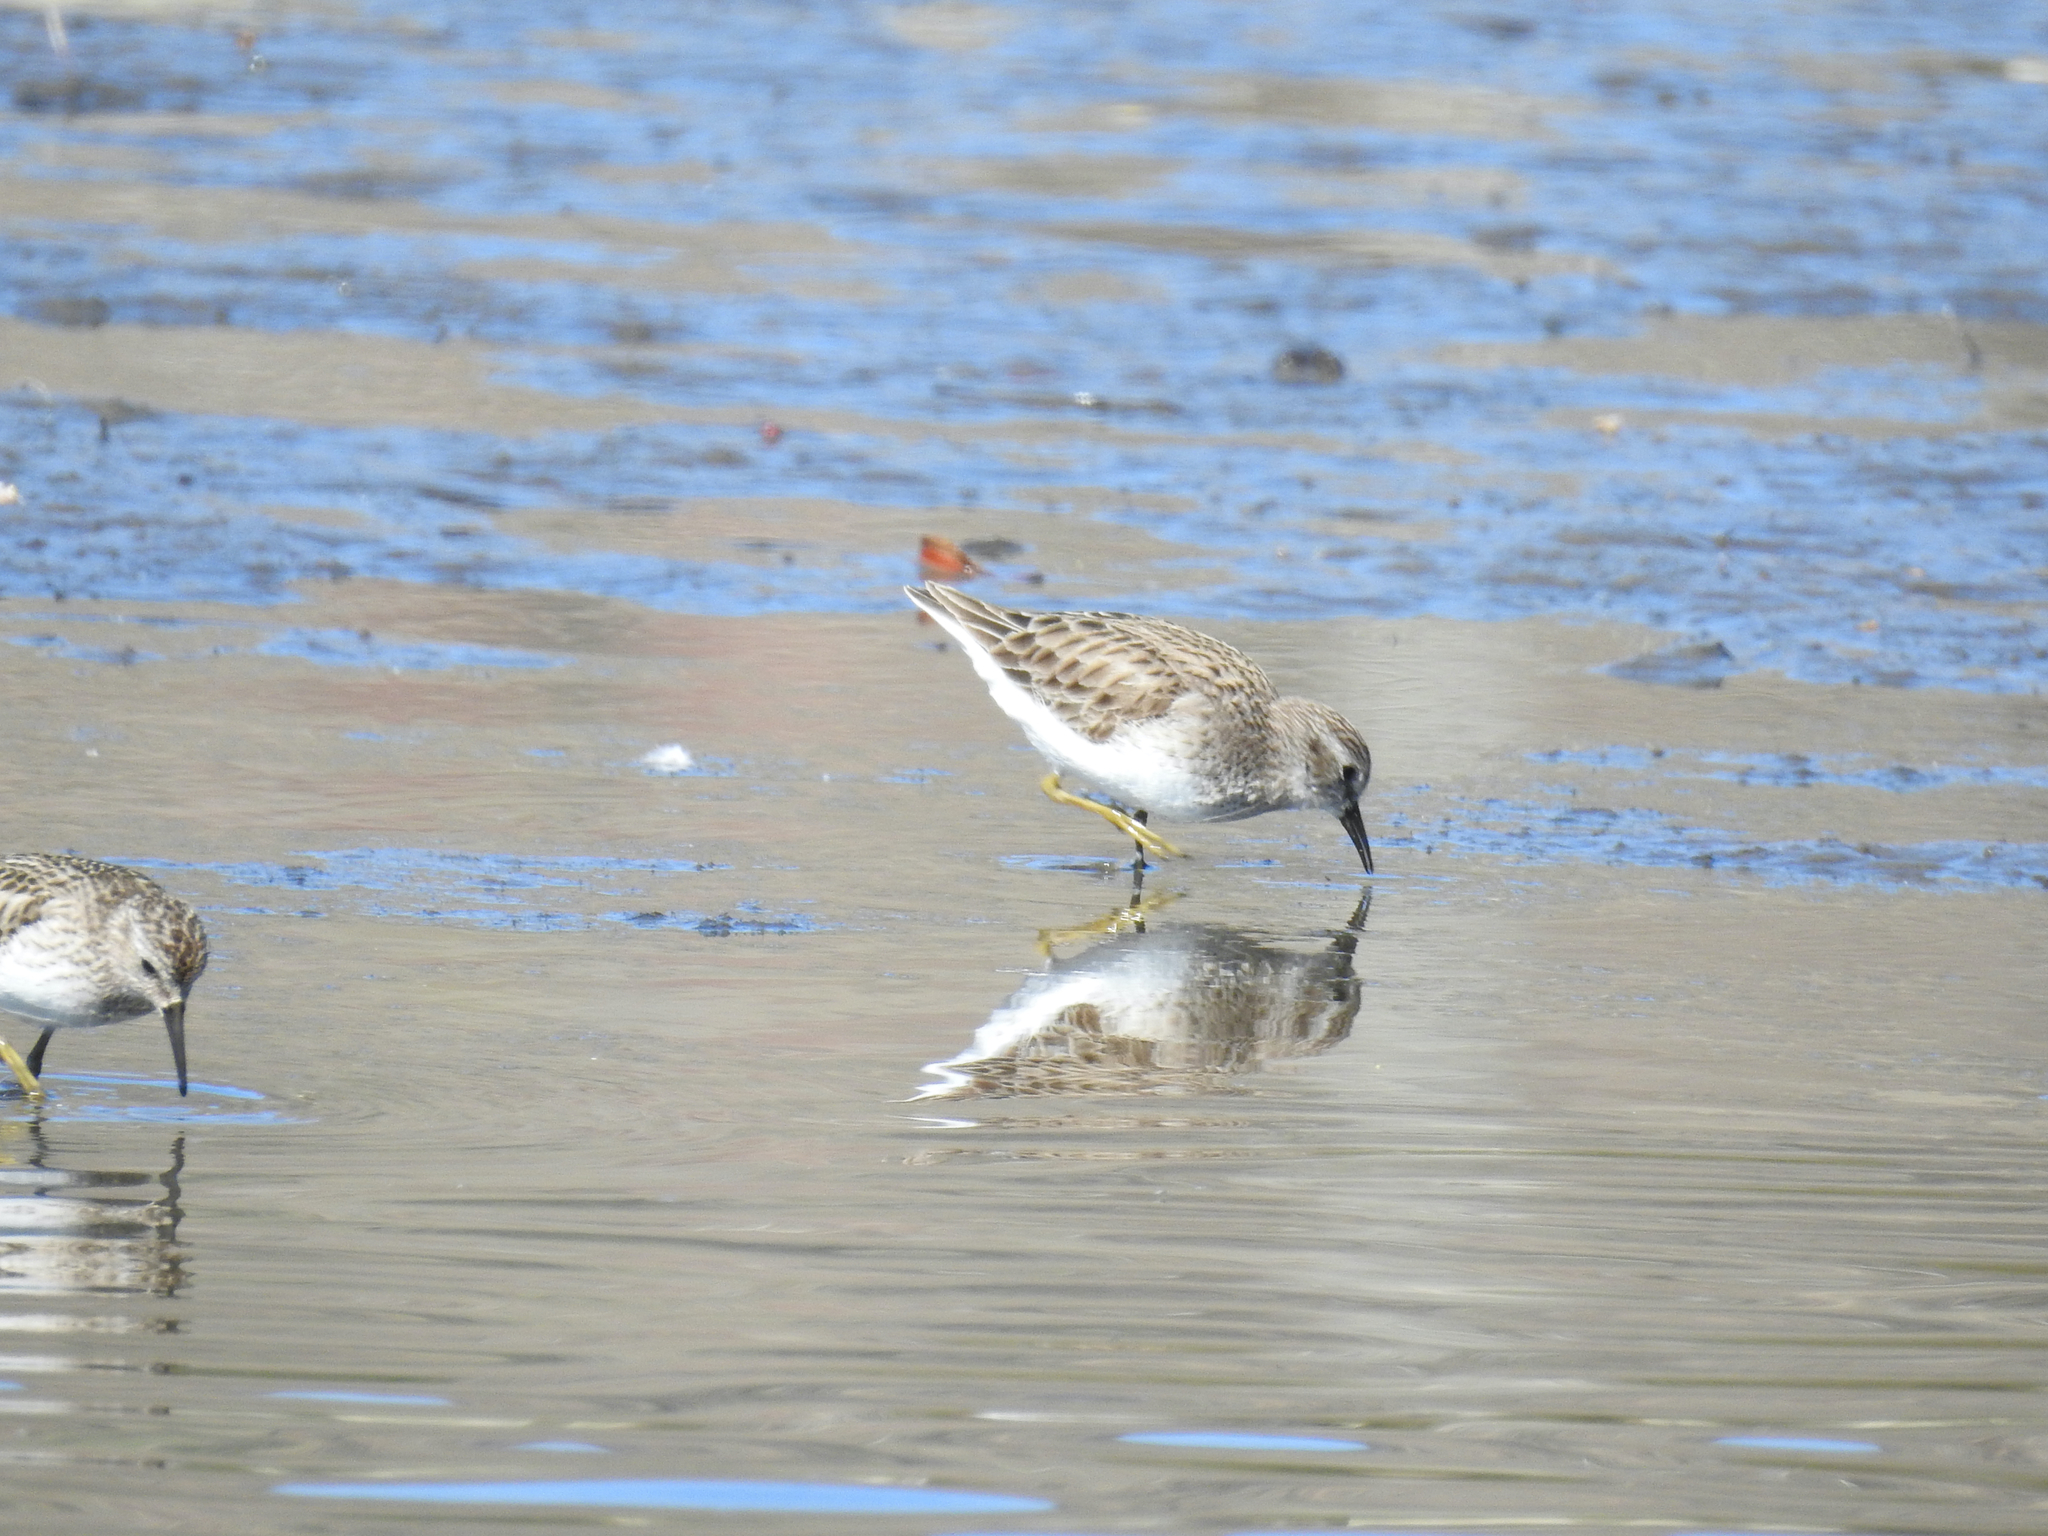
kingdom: Animalia
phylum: Chordata
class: Aves
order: Charadriiformes
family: Scolopacidae
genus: Calidris
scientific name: Calidris minutilla
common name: Least sandpiper
